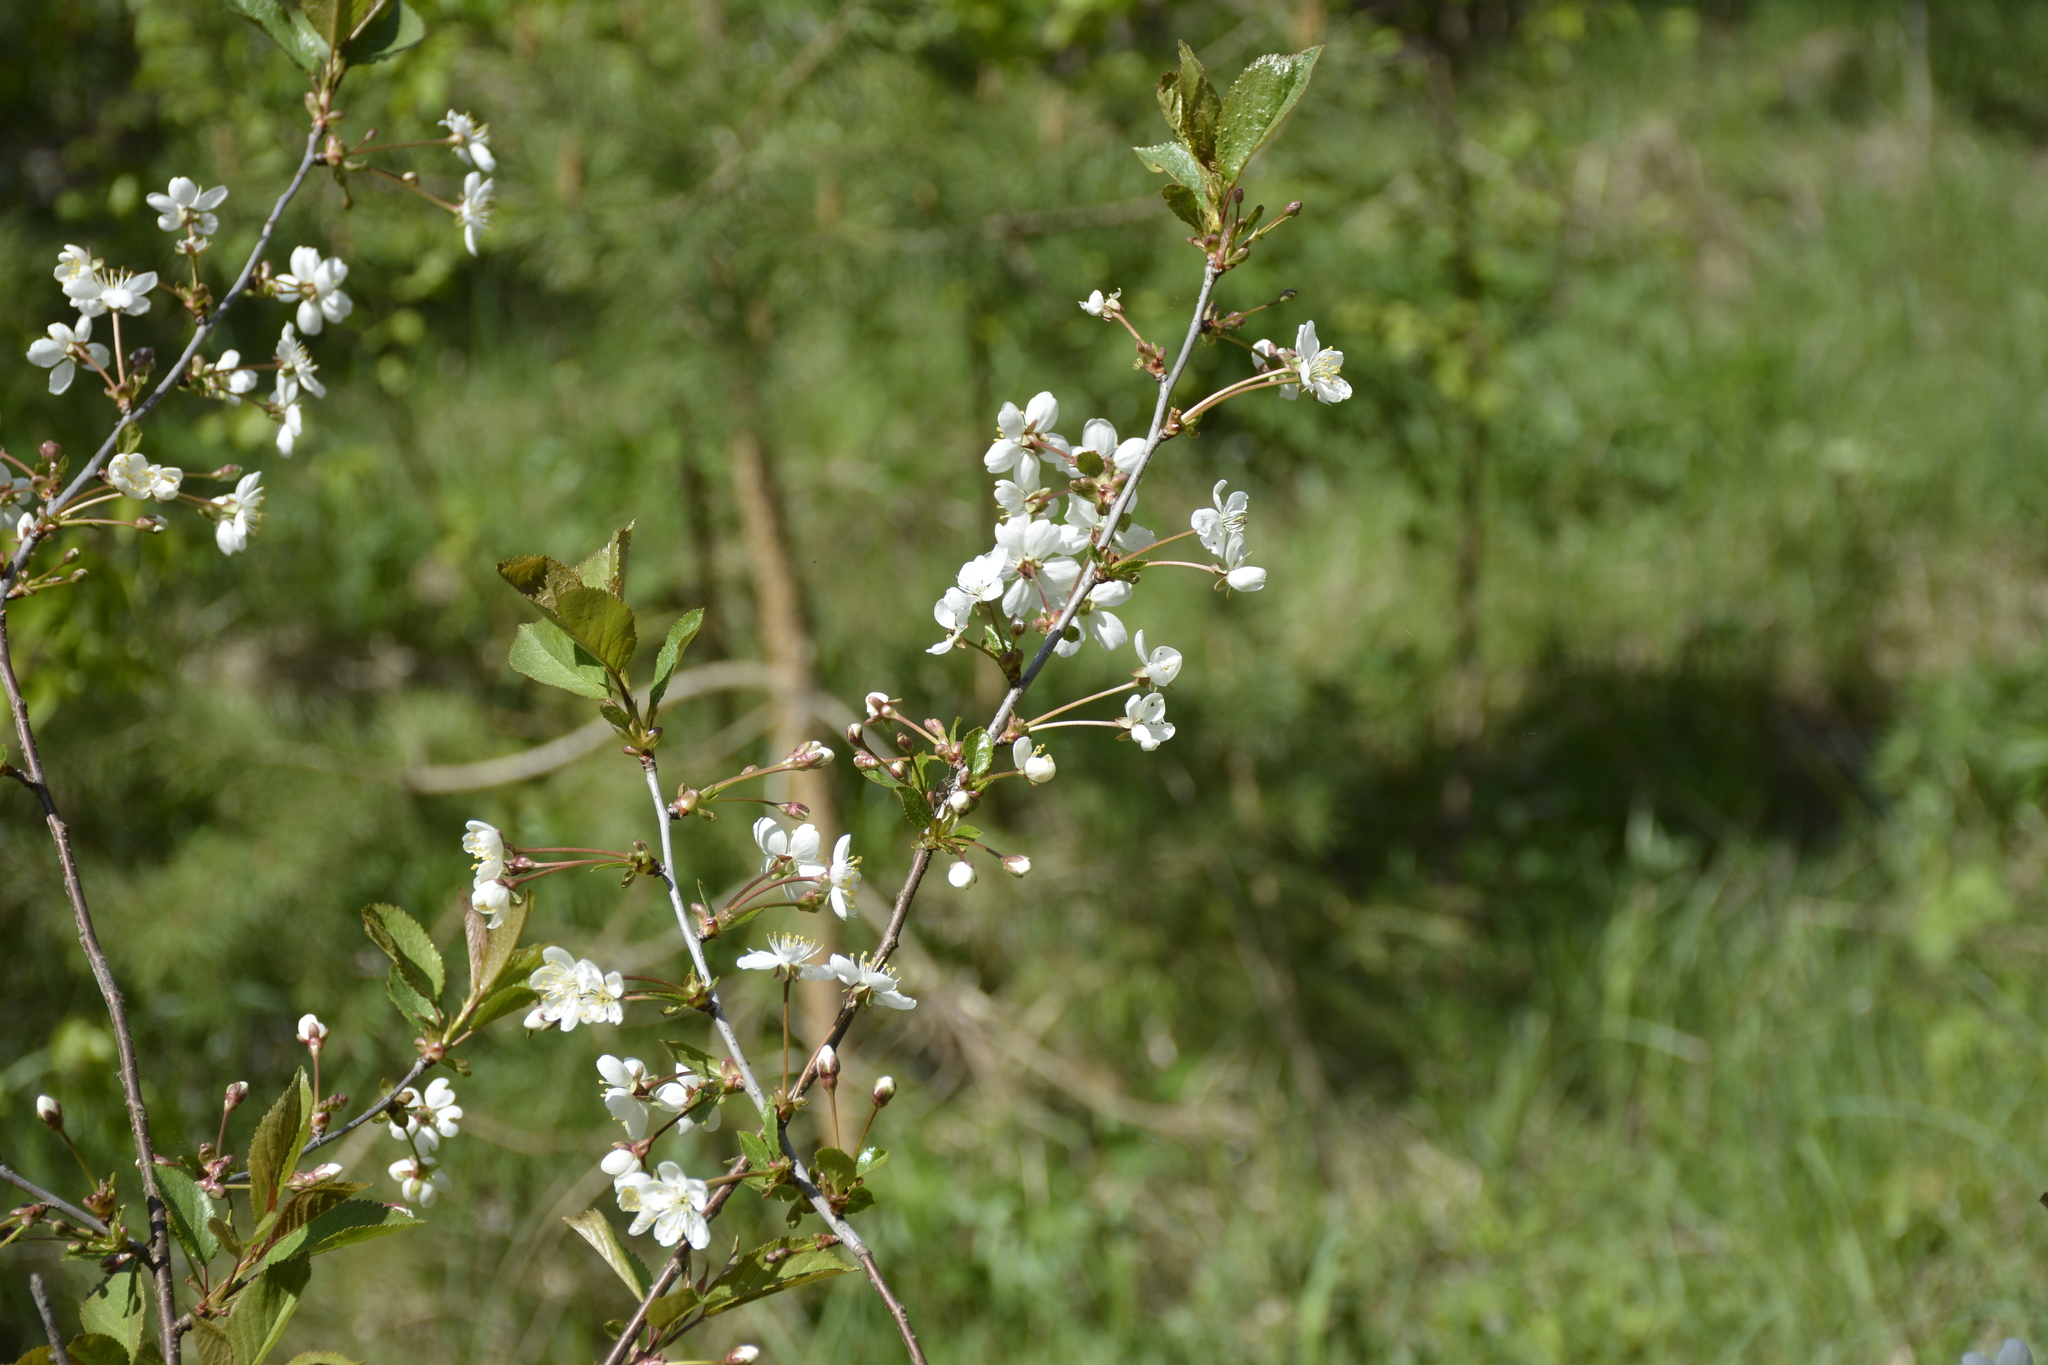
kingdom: Plantae
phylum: Tracheophyta
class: Magnoliopsida
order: Rosales
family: Rosaceae
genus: Prunus
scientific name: Prunus cerasus
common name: Morello cherry
